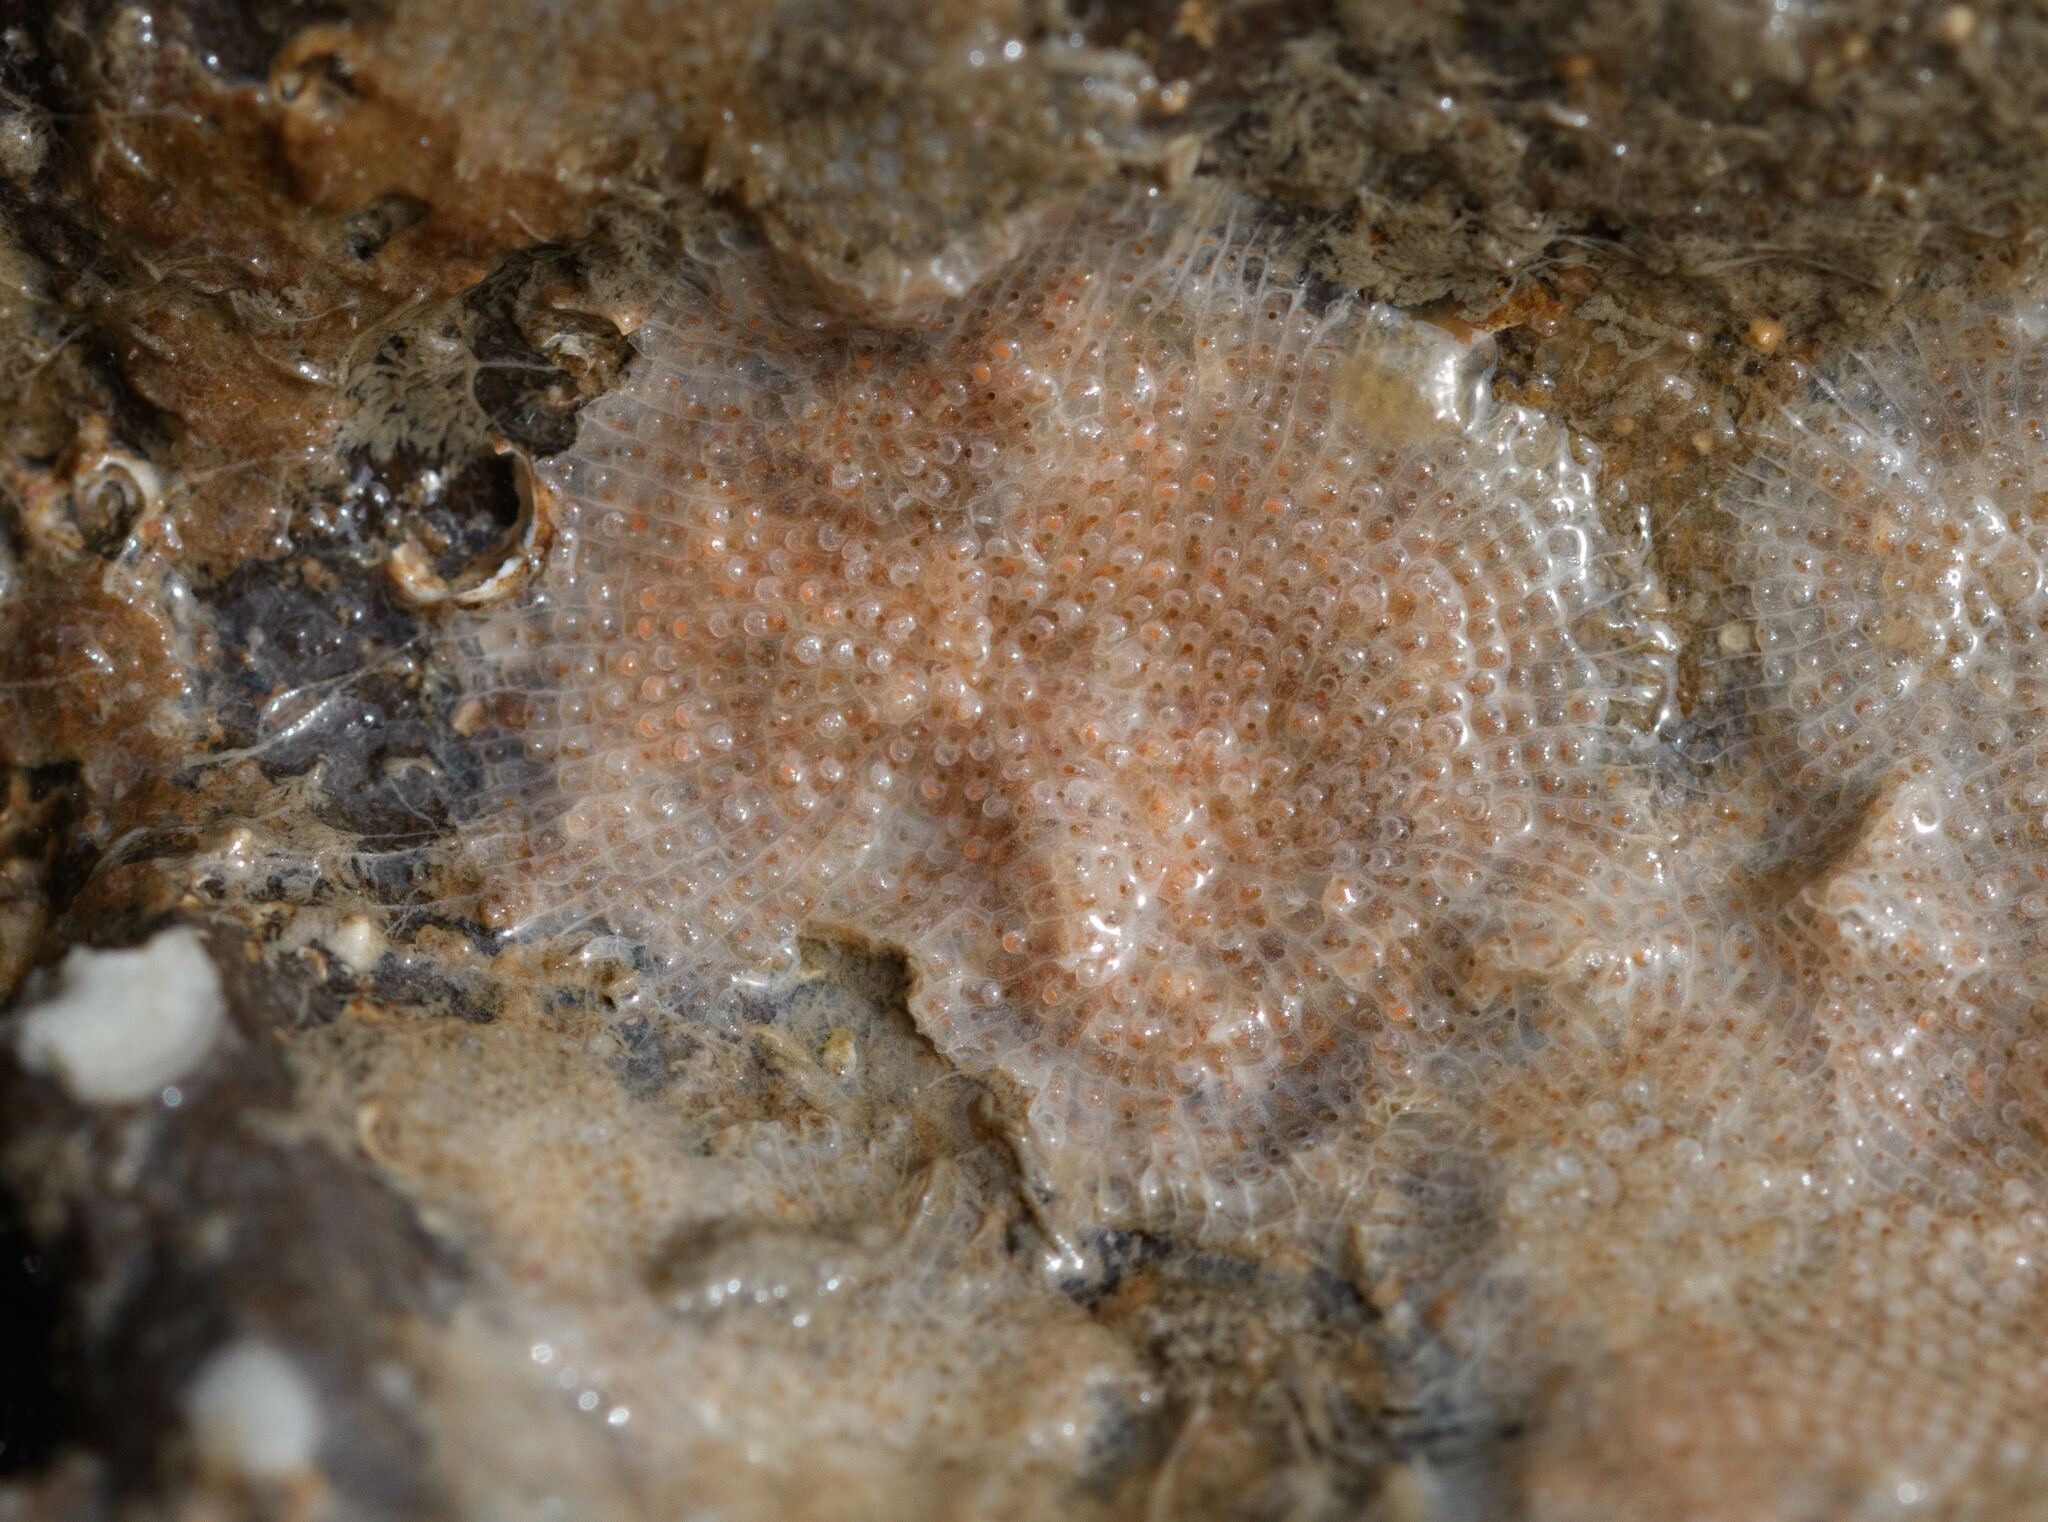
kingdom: Animalia
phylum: Bryozoa
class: Gymnolaemata
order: Cheilostomatida
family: Bitectiporidae
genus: Schizomavella
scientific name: Schizomavella linearis
